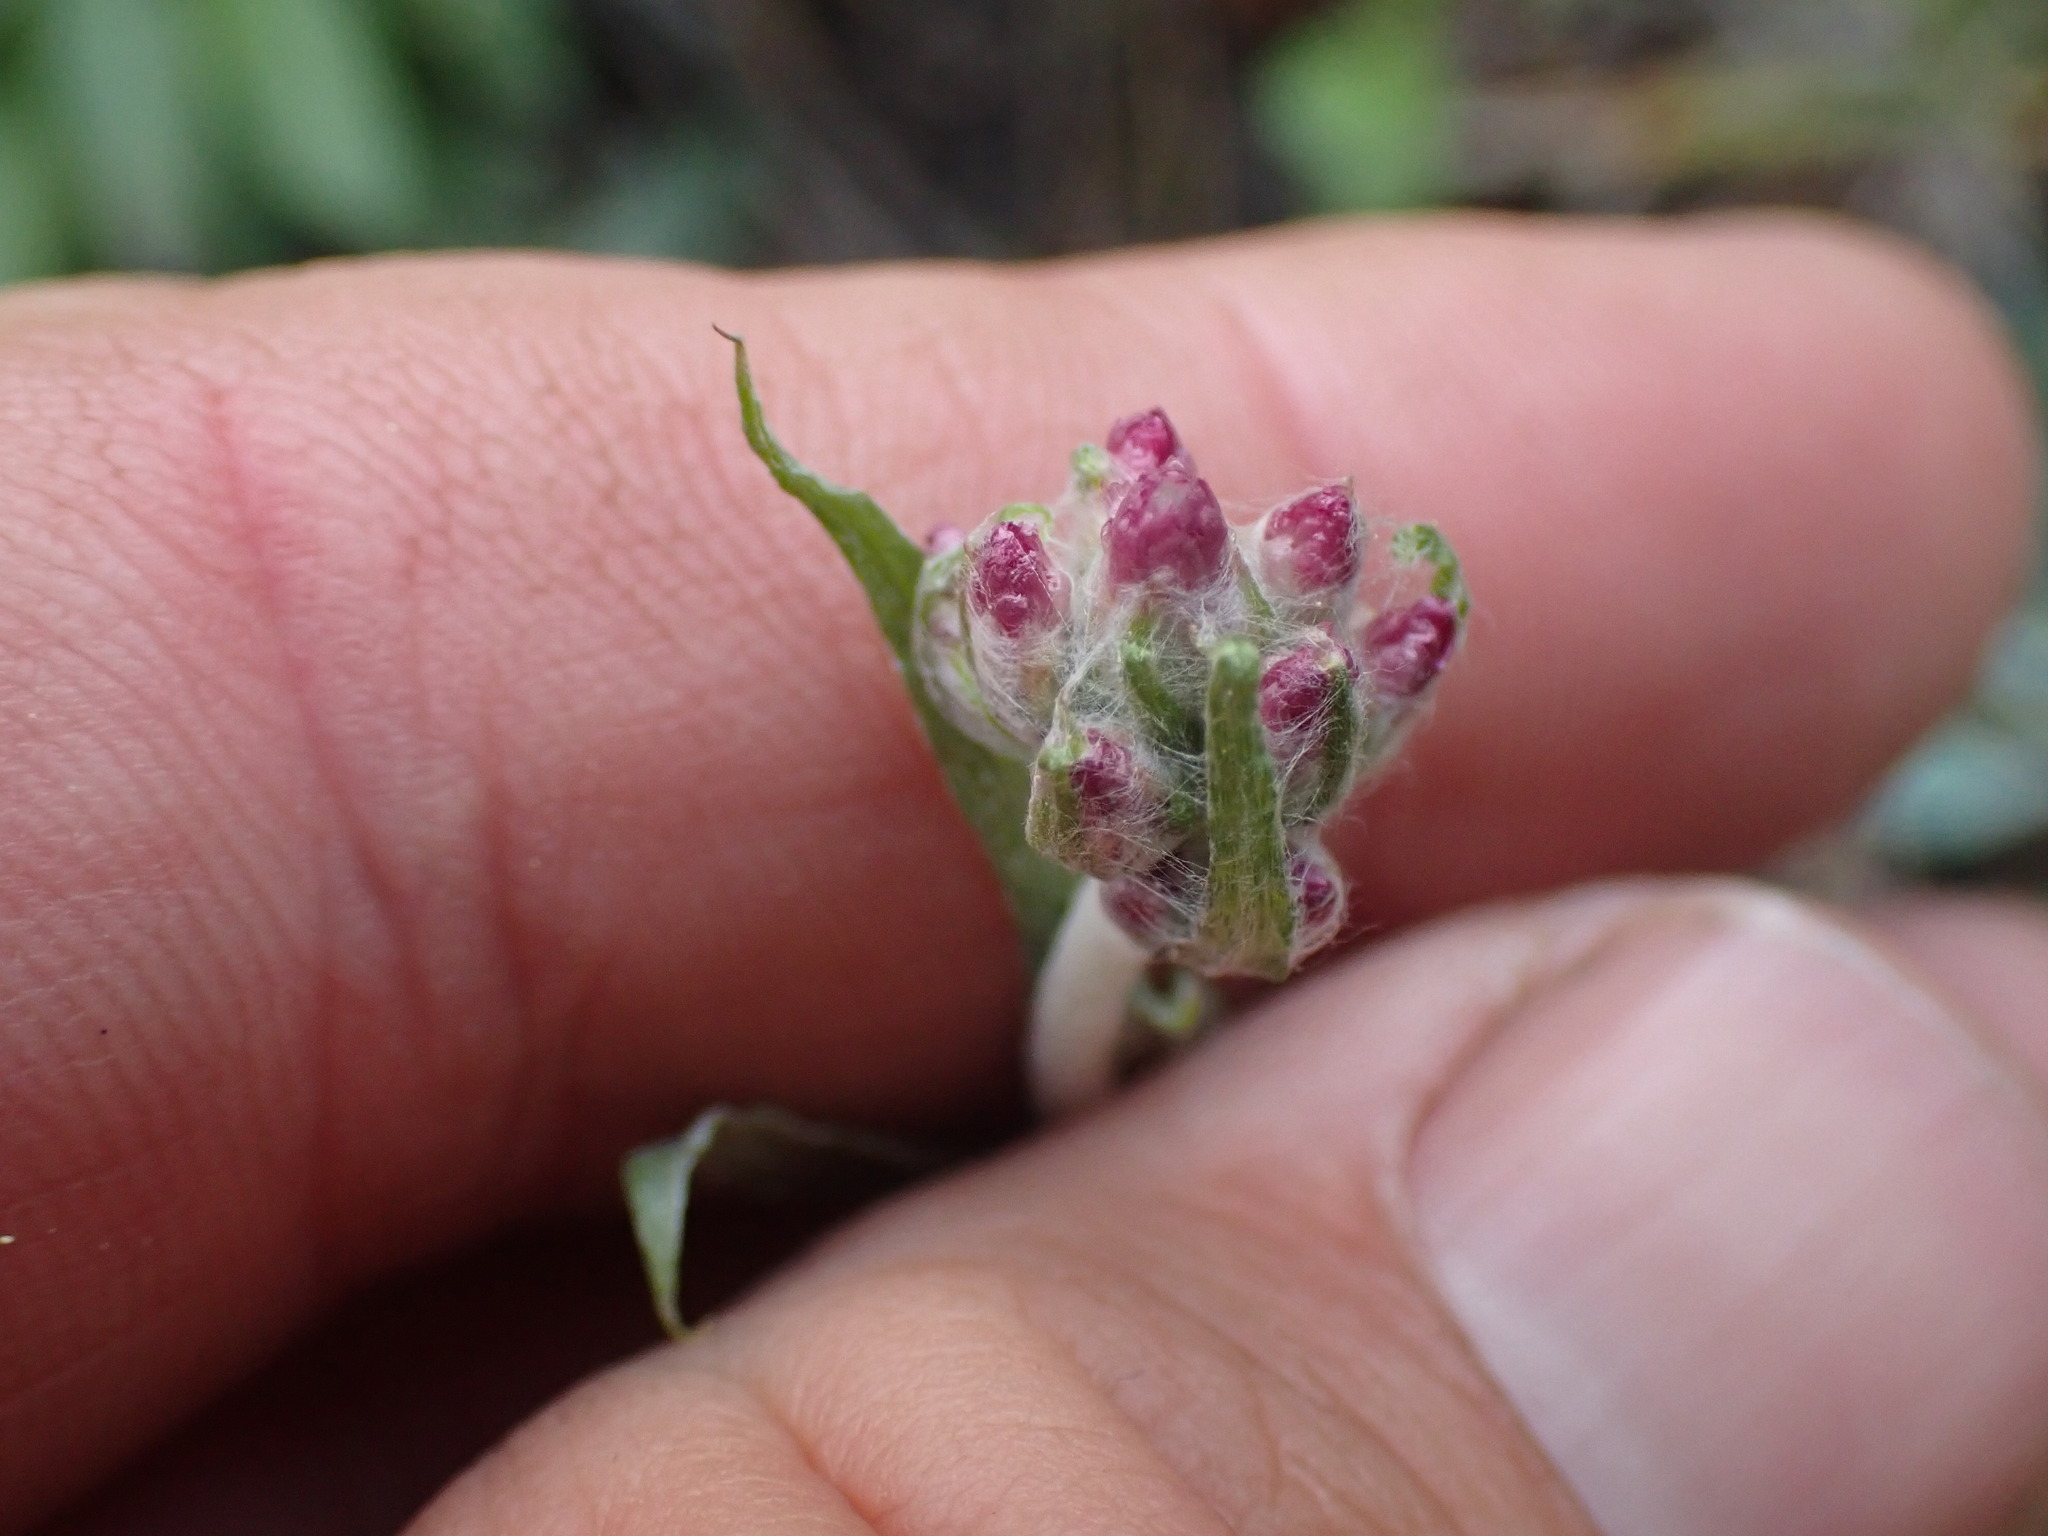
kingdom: Plantae
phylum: Tracheophyta
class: Magnoliopsida
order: Asterales
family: Asteraceae
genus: Antennaria
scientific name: Antennaria rosea
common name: Rosy pussytoes
